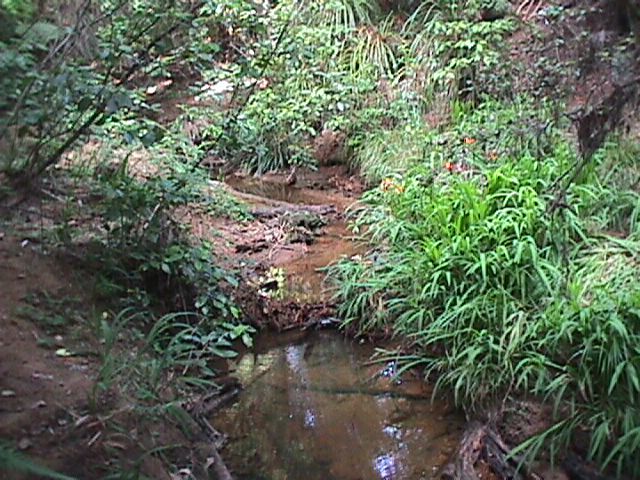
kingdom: Plantae
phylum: Tracheophyta
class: Liliopsida
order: Asparagales
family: Iridaceae
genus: Crocosmia
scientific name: Crocosmia crocosmiiflora
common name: Montbretia
